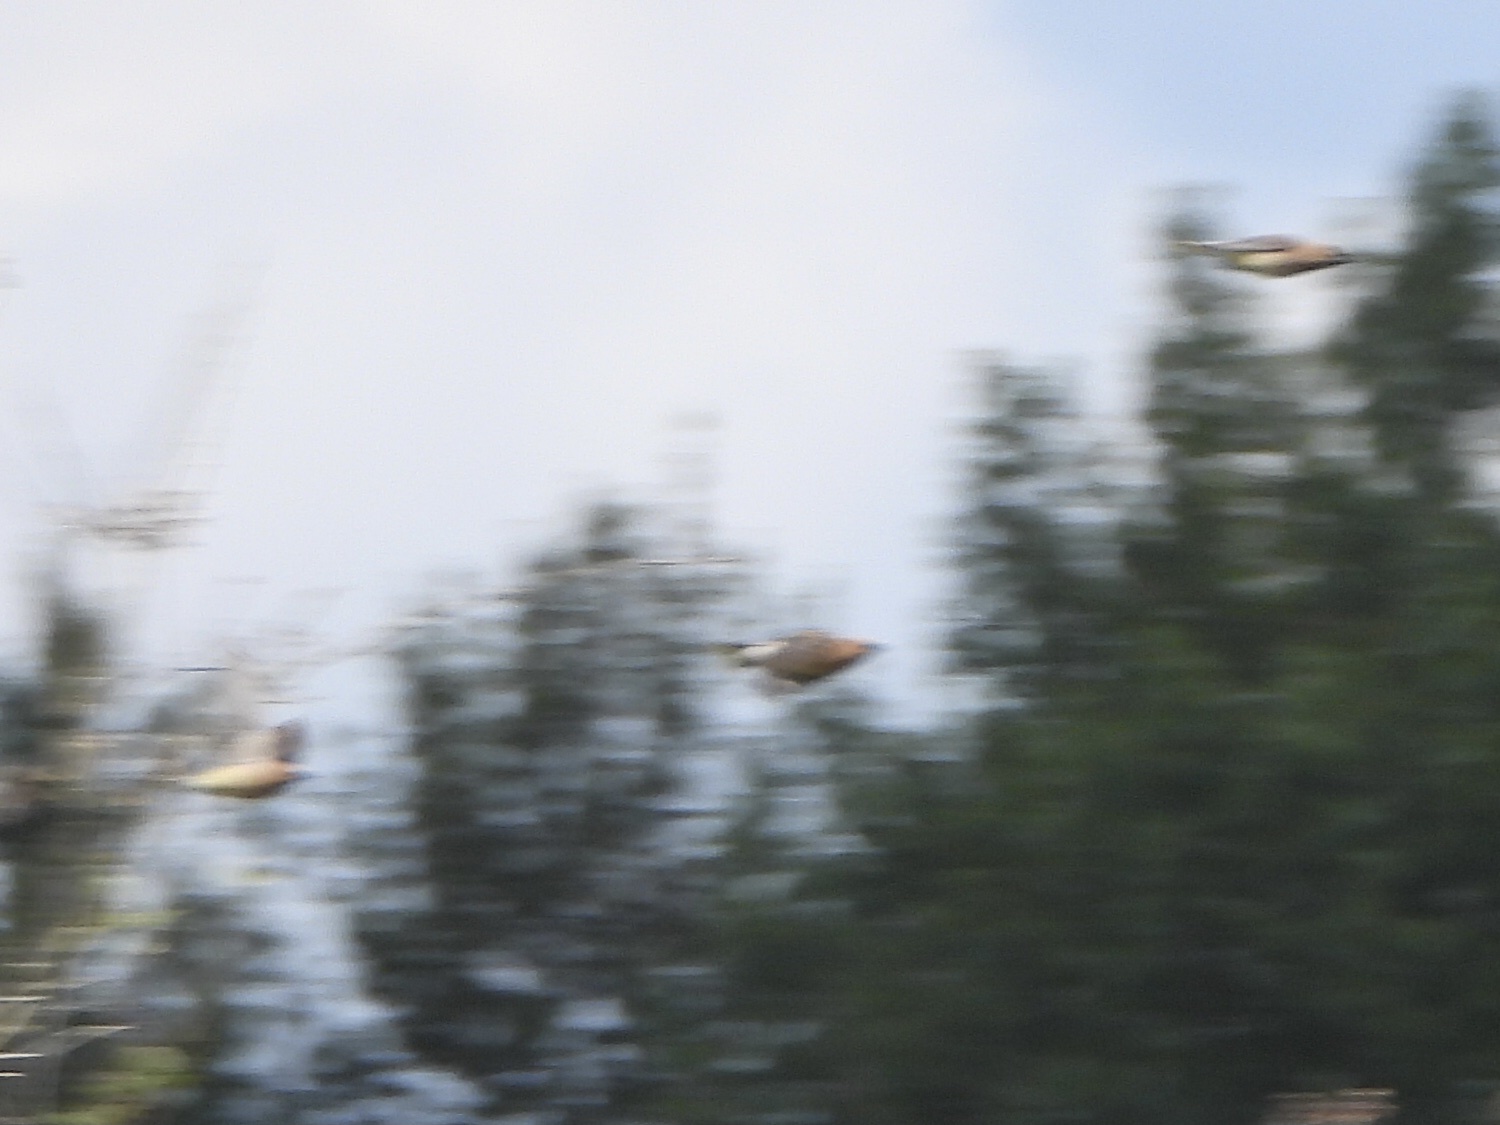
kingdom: Animalia
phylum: Chordata
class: Aves
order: Passeriformes
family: Bombycillidae
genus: Bombycilla
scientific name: Bombycilla cedrorum
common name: Cedar waxwing
